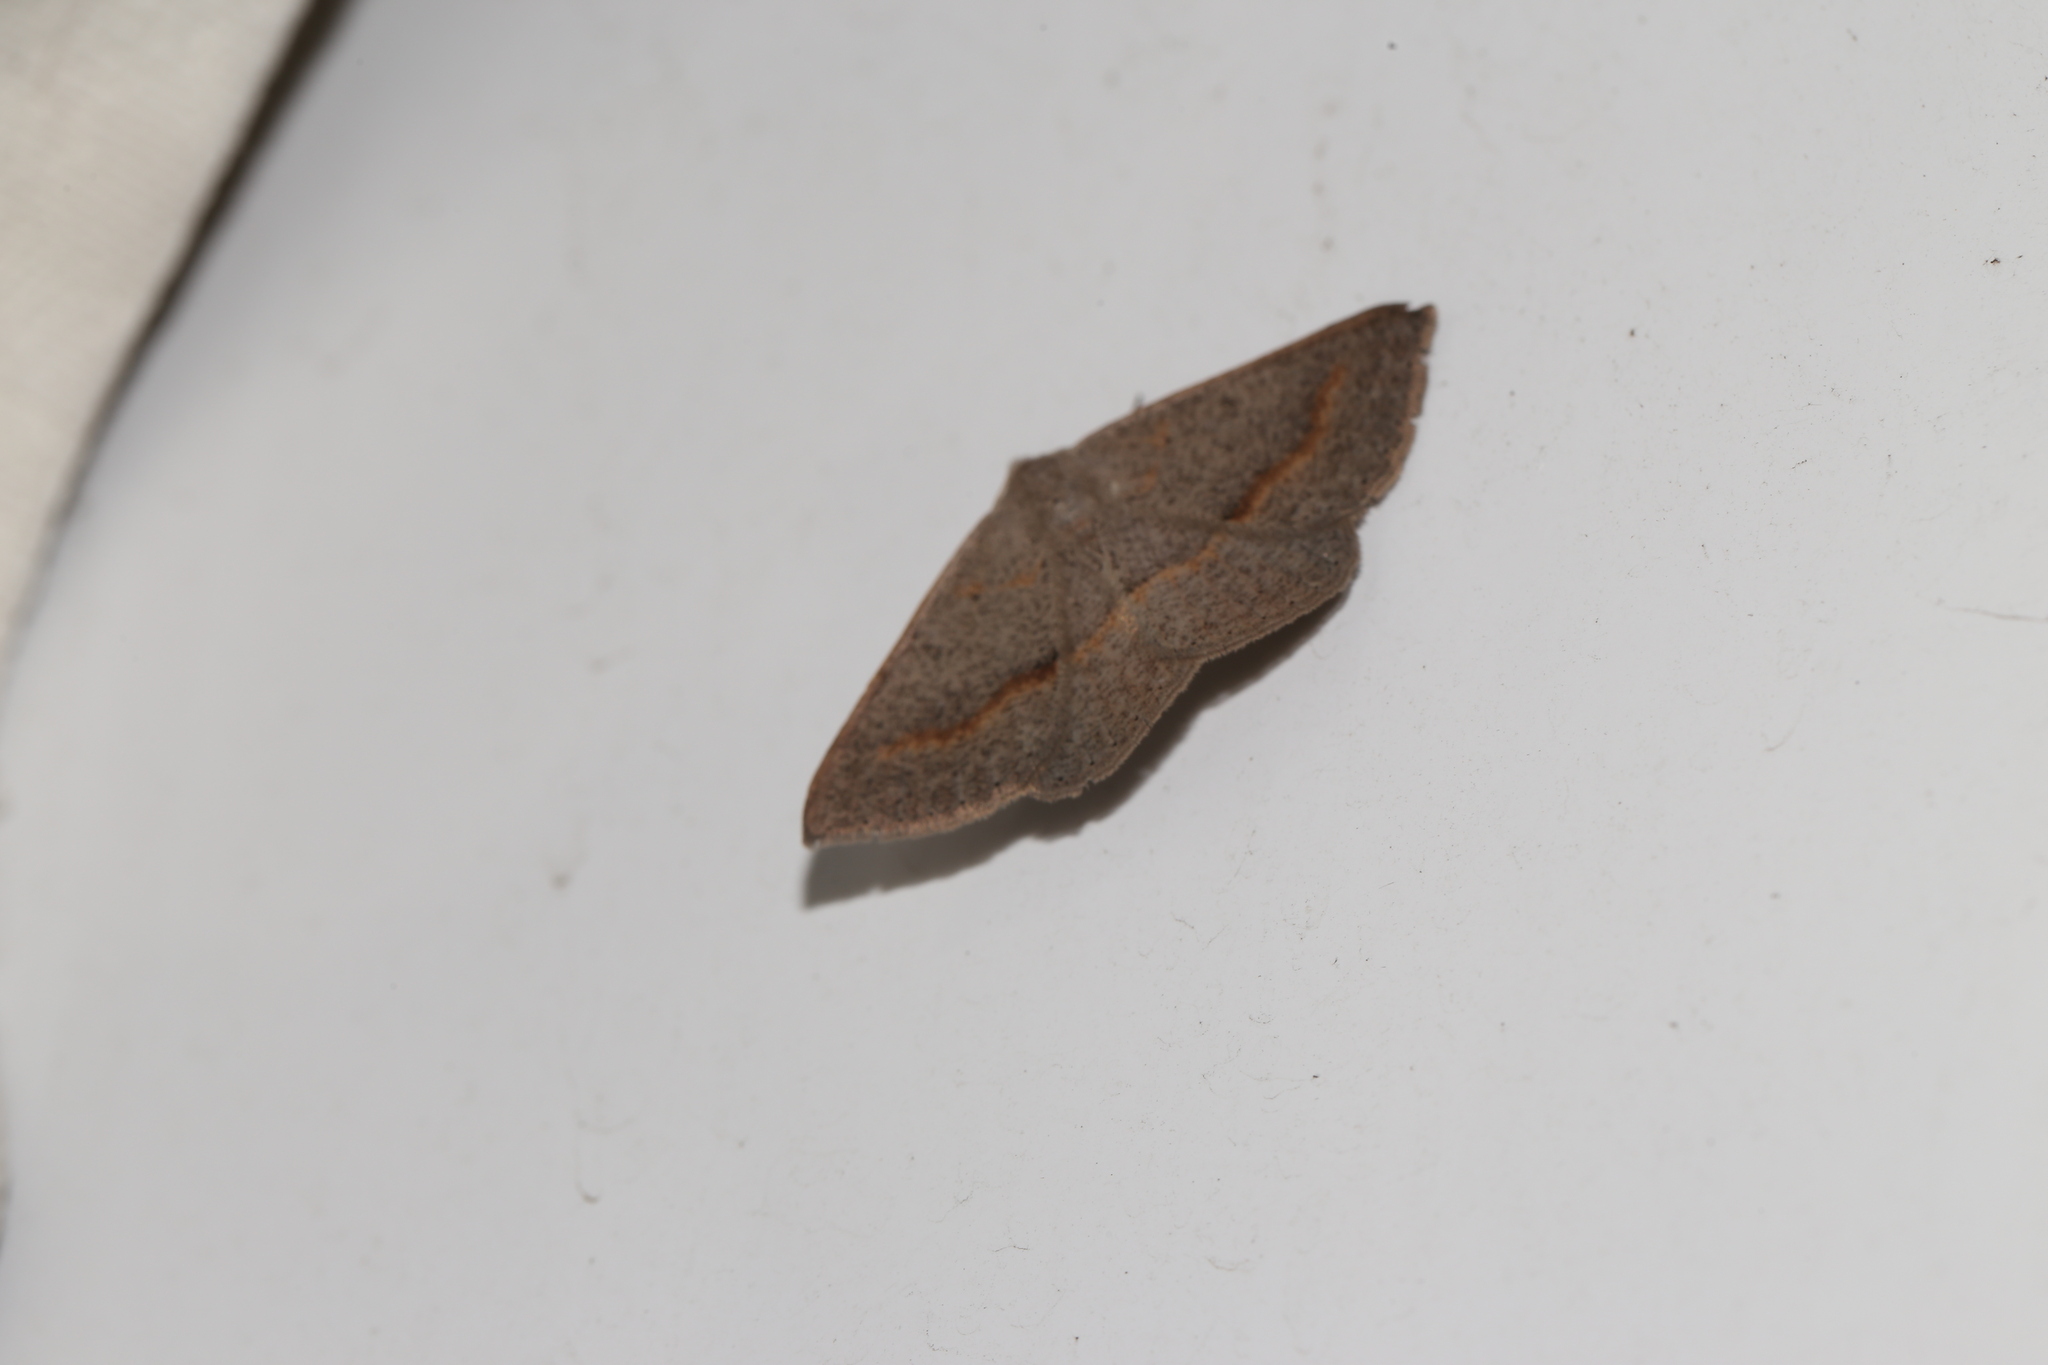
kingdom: Animalia
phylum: Arthropoda
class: Insecta
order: Lepidoptera
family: Geometridae
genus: Encryphia
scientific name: Encryphia frontisignata
